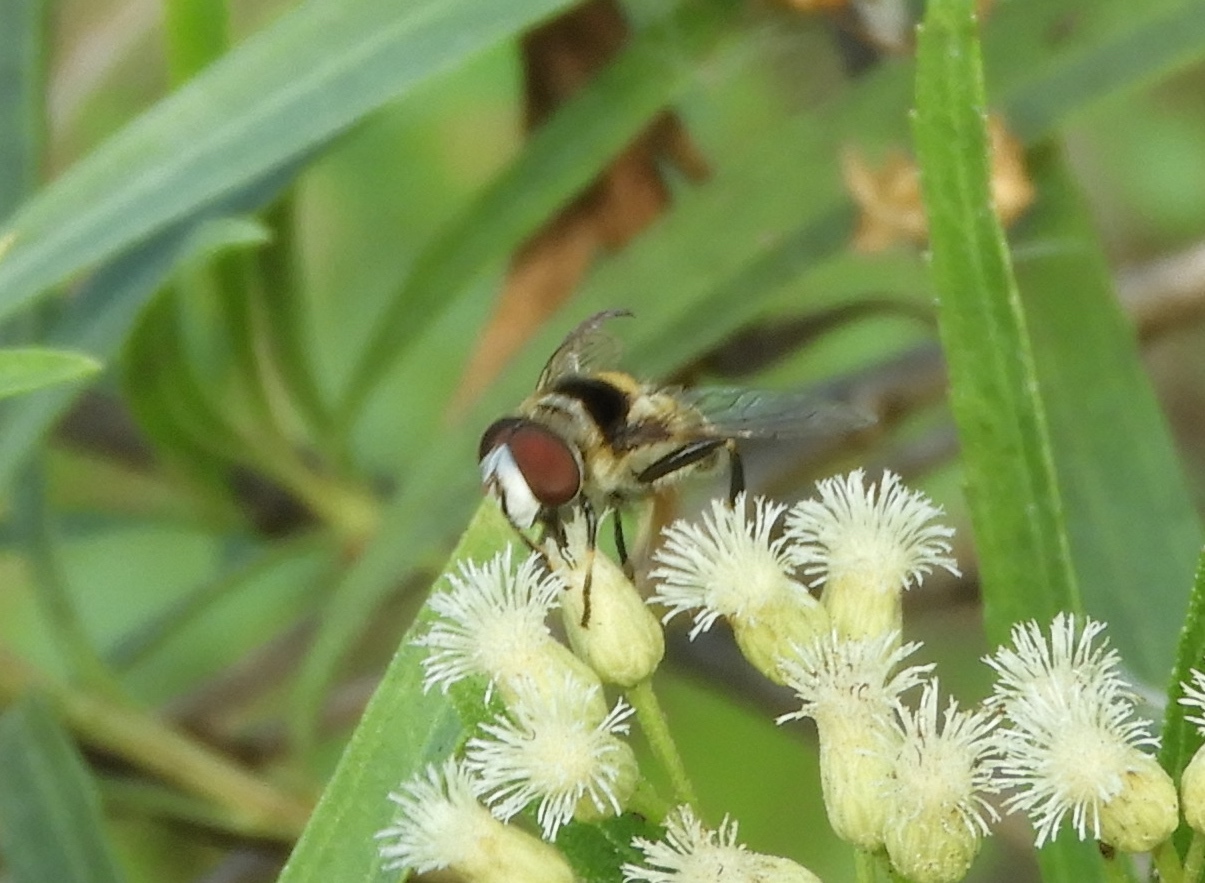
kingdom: Animalia
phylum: Arthropoda
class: Insecta
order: Diptera
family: Syrphidae
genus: Palpada
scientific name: Palpada
